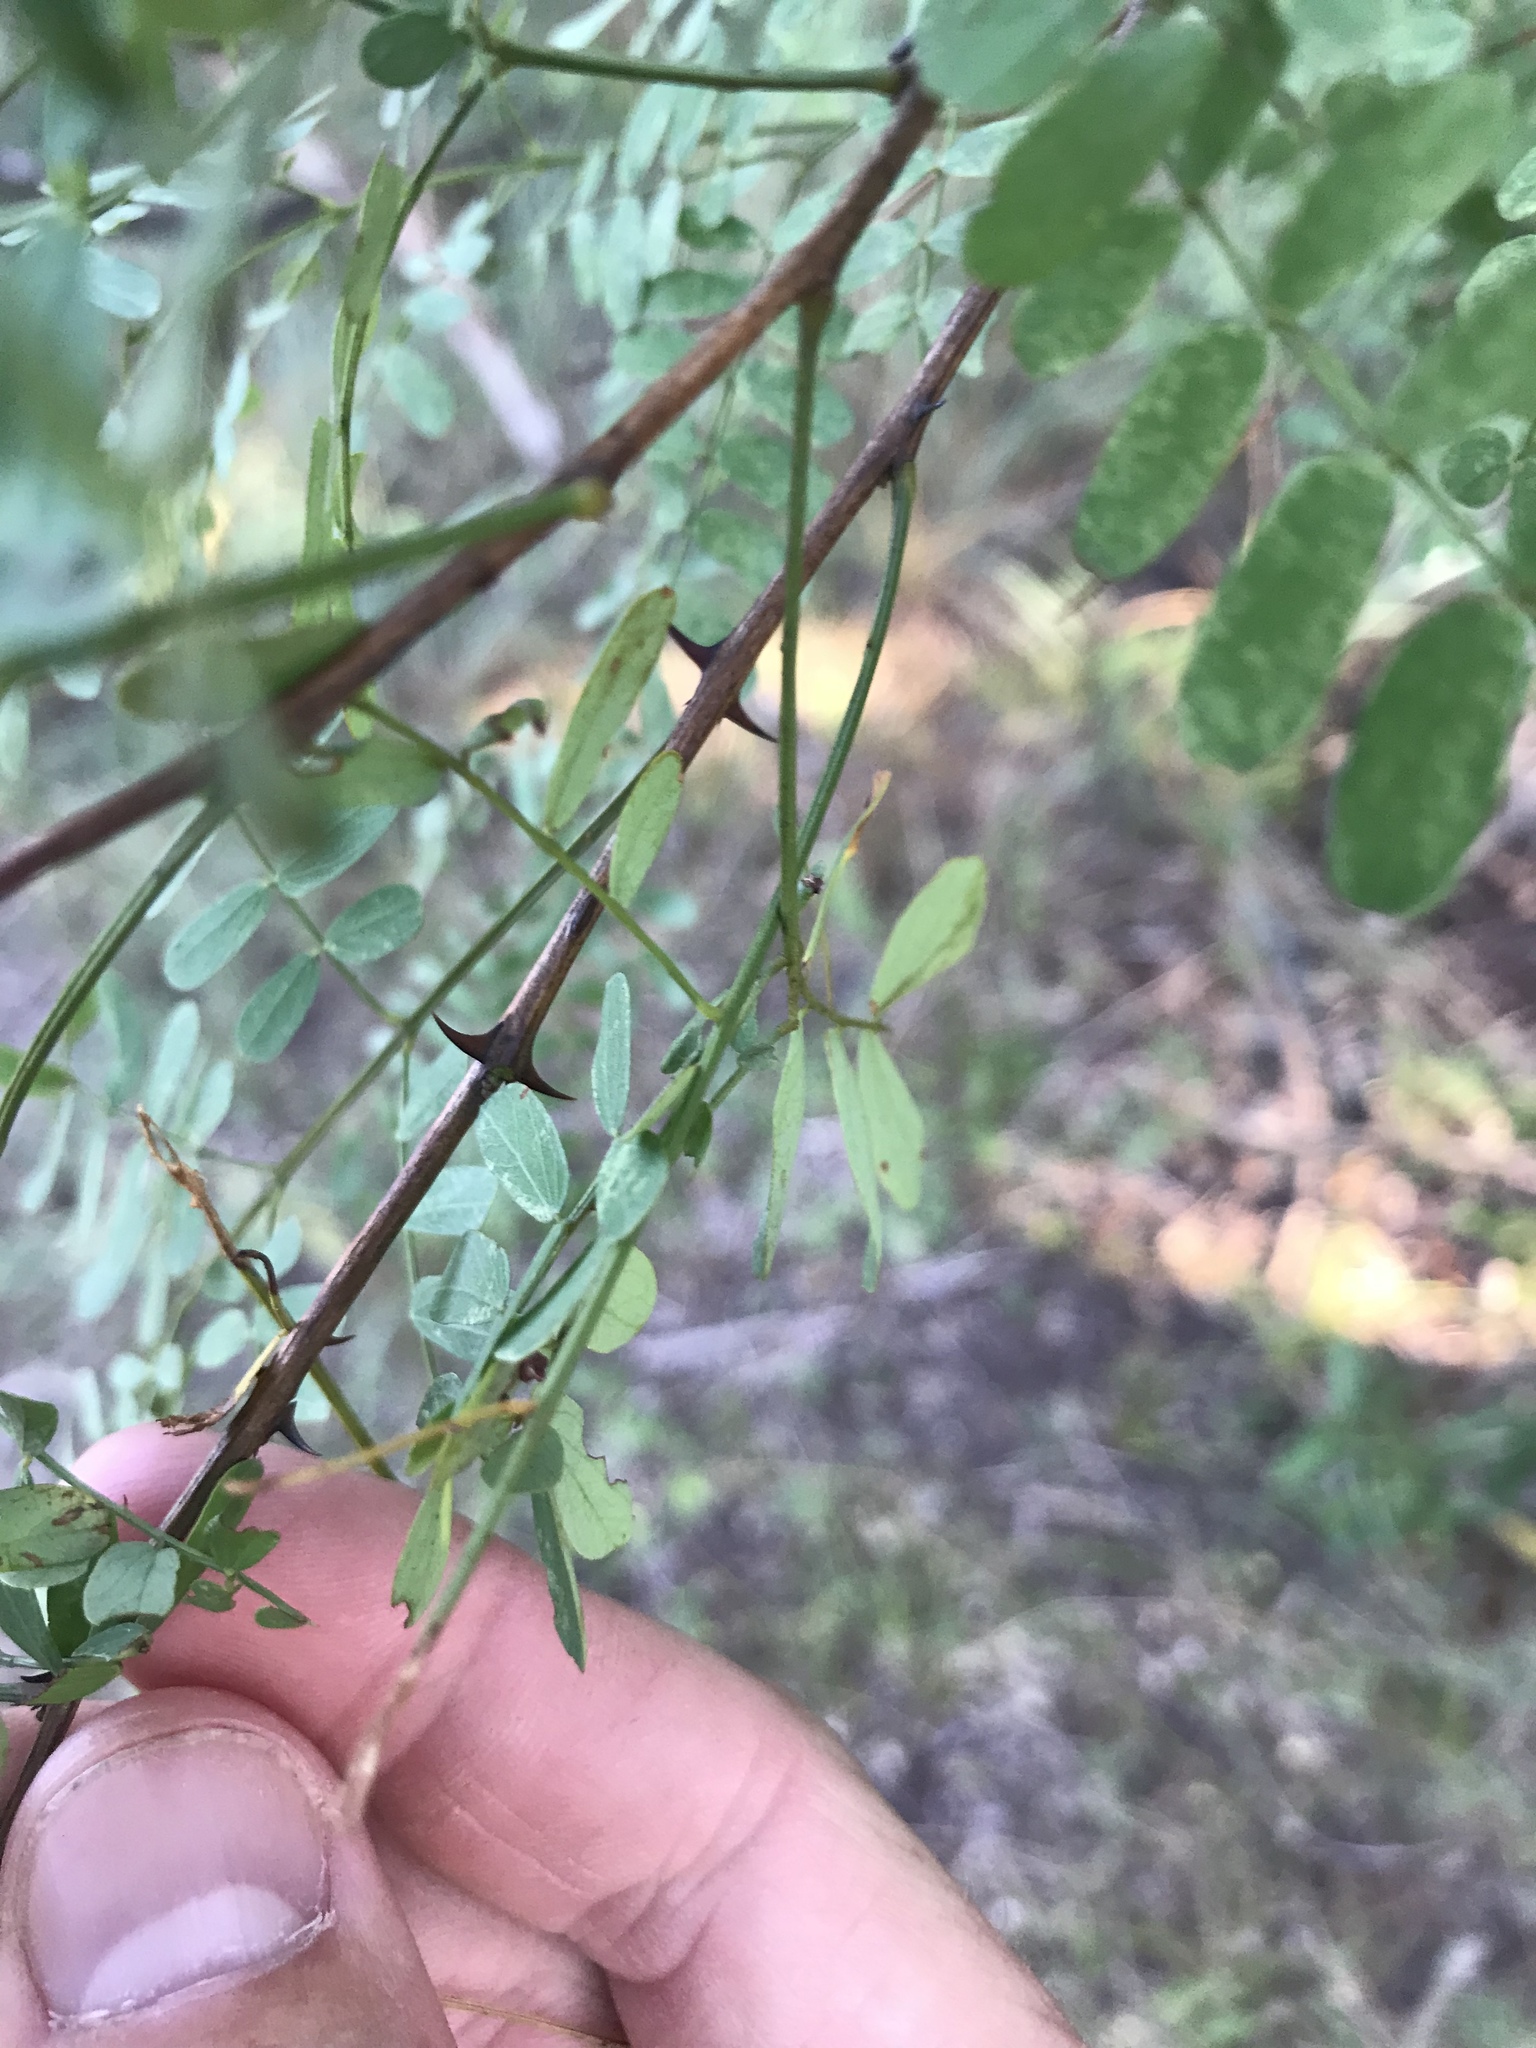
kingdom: Plantae
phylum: Tracheophyta
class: Magnoliopsida
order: Fabales
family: Fabaceae
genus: Senegalia
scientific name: Senegalia roemeriana
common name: Roemer's acacia
